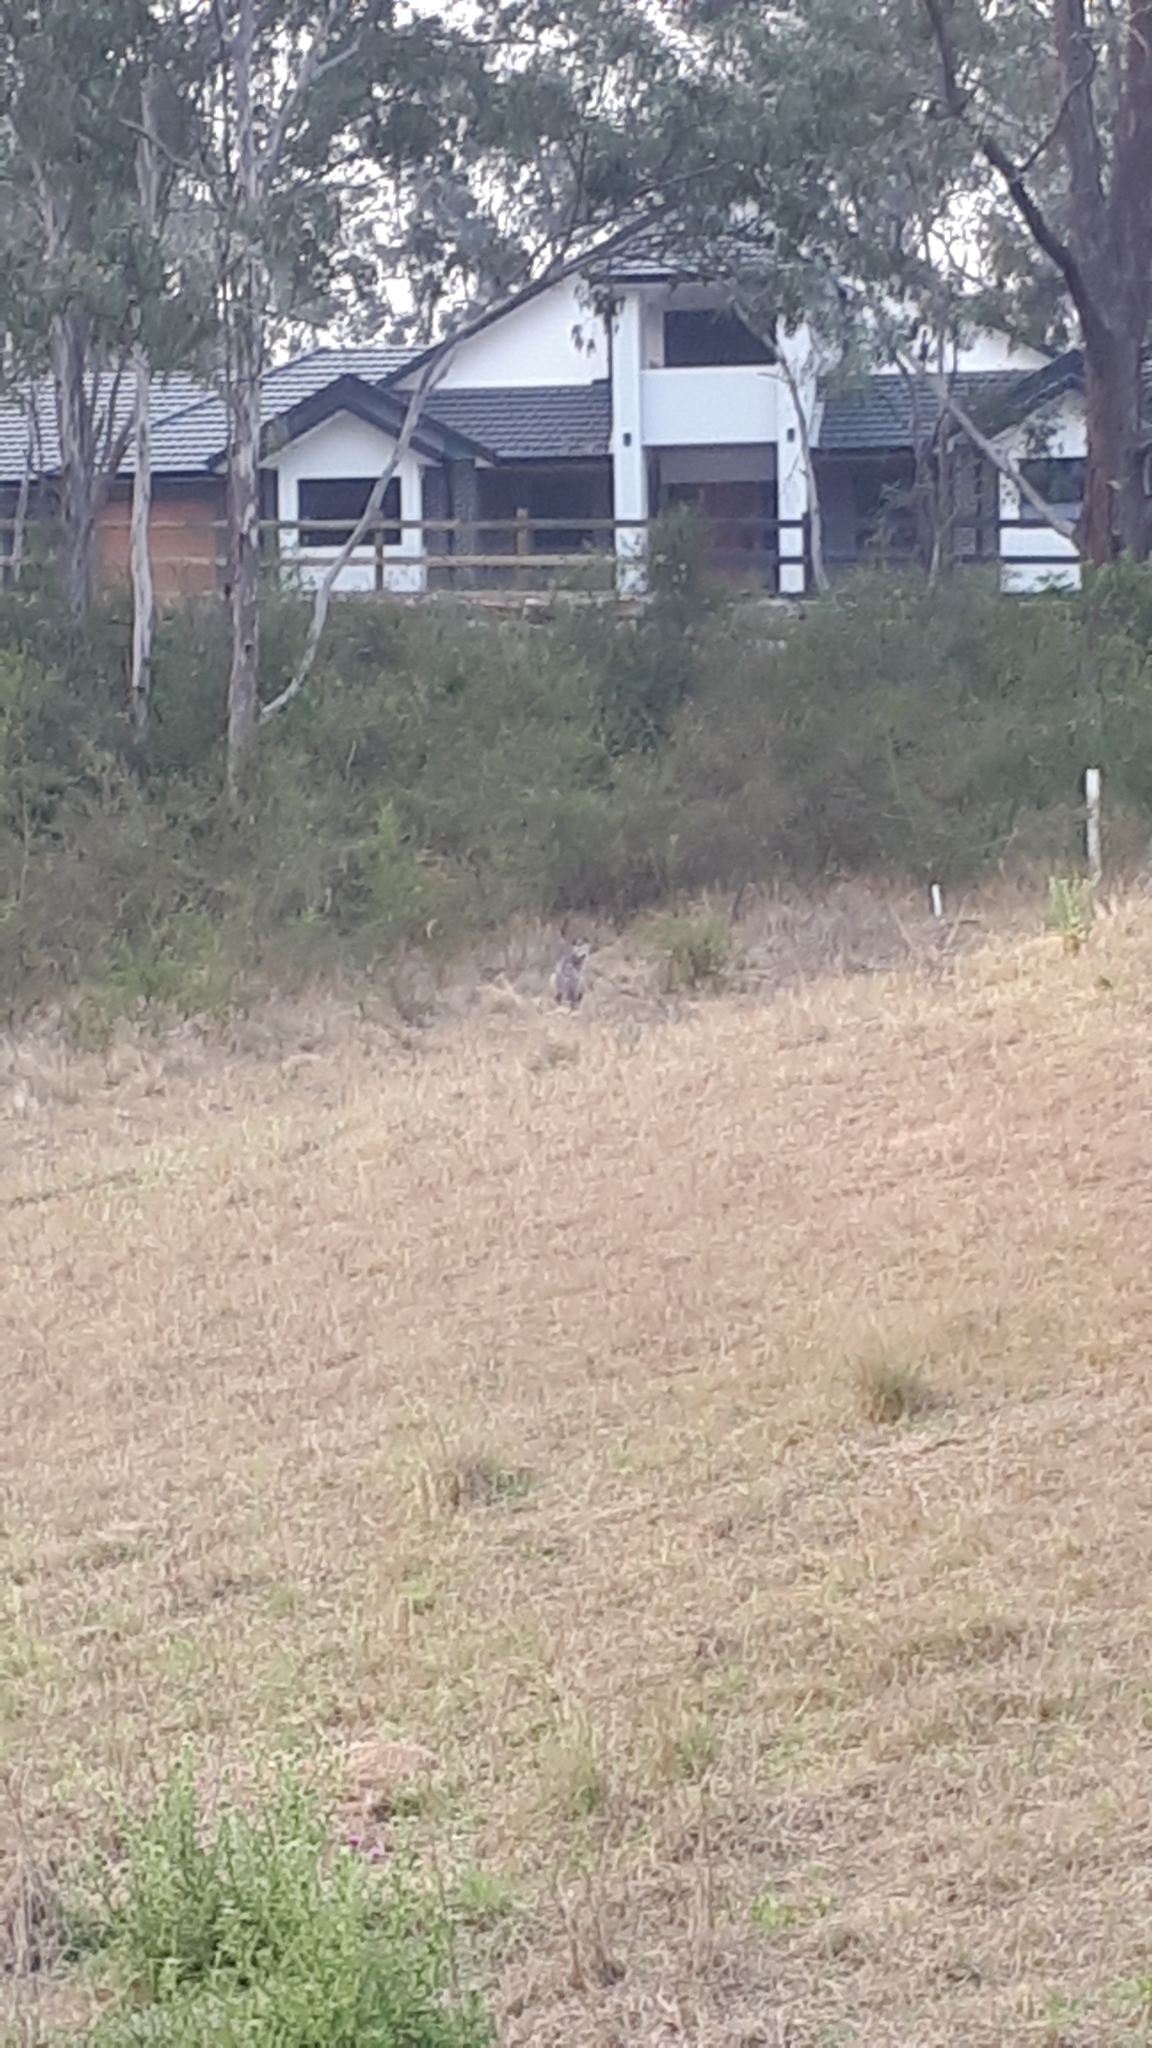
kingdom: Animalia
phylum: Chordata
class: Mammalia
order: Diprotodontia
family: Macropodidae
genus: Macropus
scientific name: Macropus giganteus
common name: Eastern grey kangaroo
